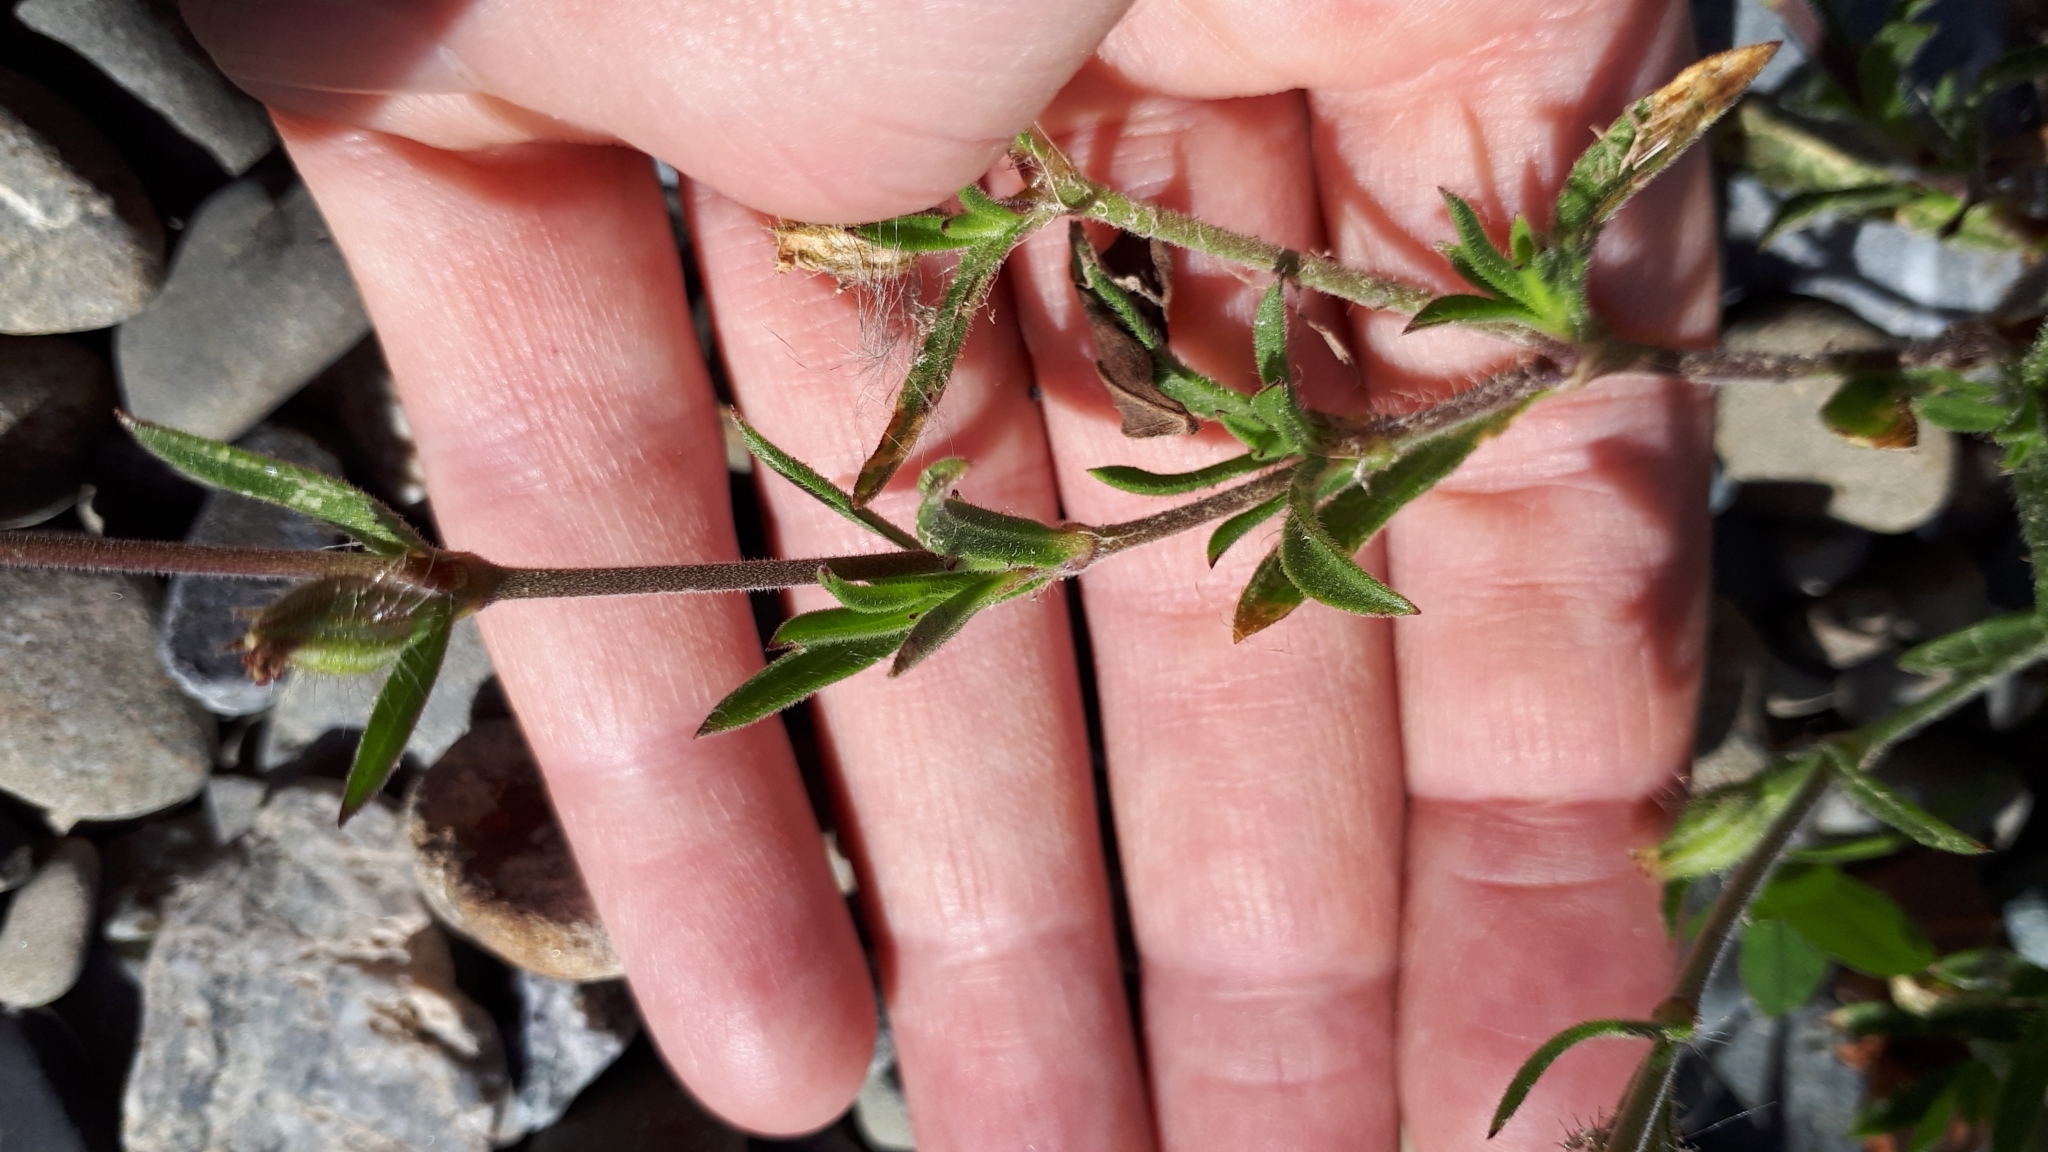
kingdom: Plantae
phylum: Tracheophyta
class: Magnoliopsida
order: Caryophyllales
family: Caryophyllaceae
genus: Silene
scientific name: Silene gallica
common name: Small-flowered catchfly
